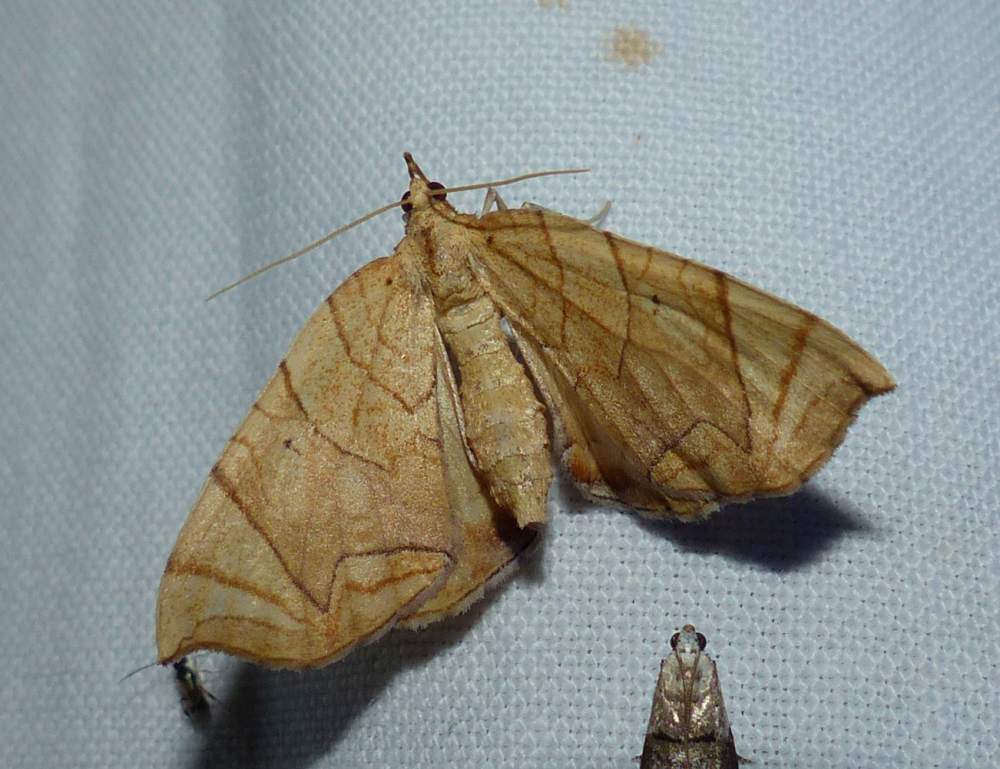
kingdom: Animalia
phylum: Arthropoda
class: Insecta
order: Lepidoptera
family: Geometridae
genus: Eulithis
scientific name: Eulithis
